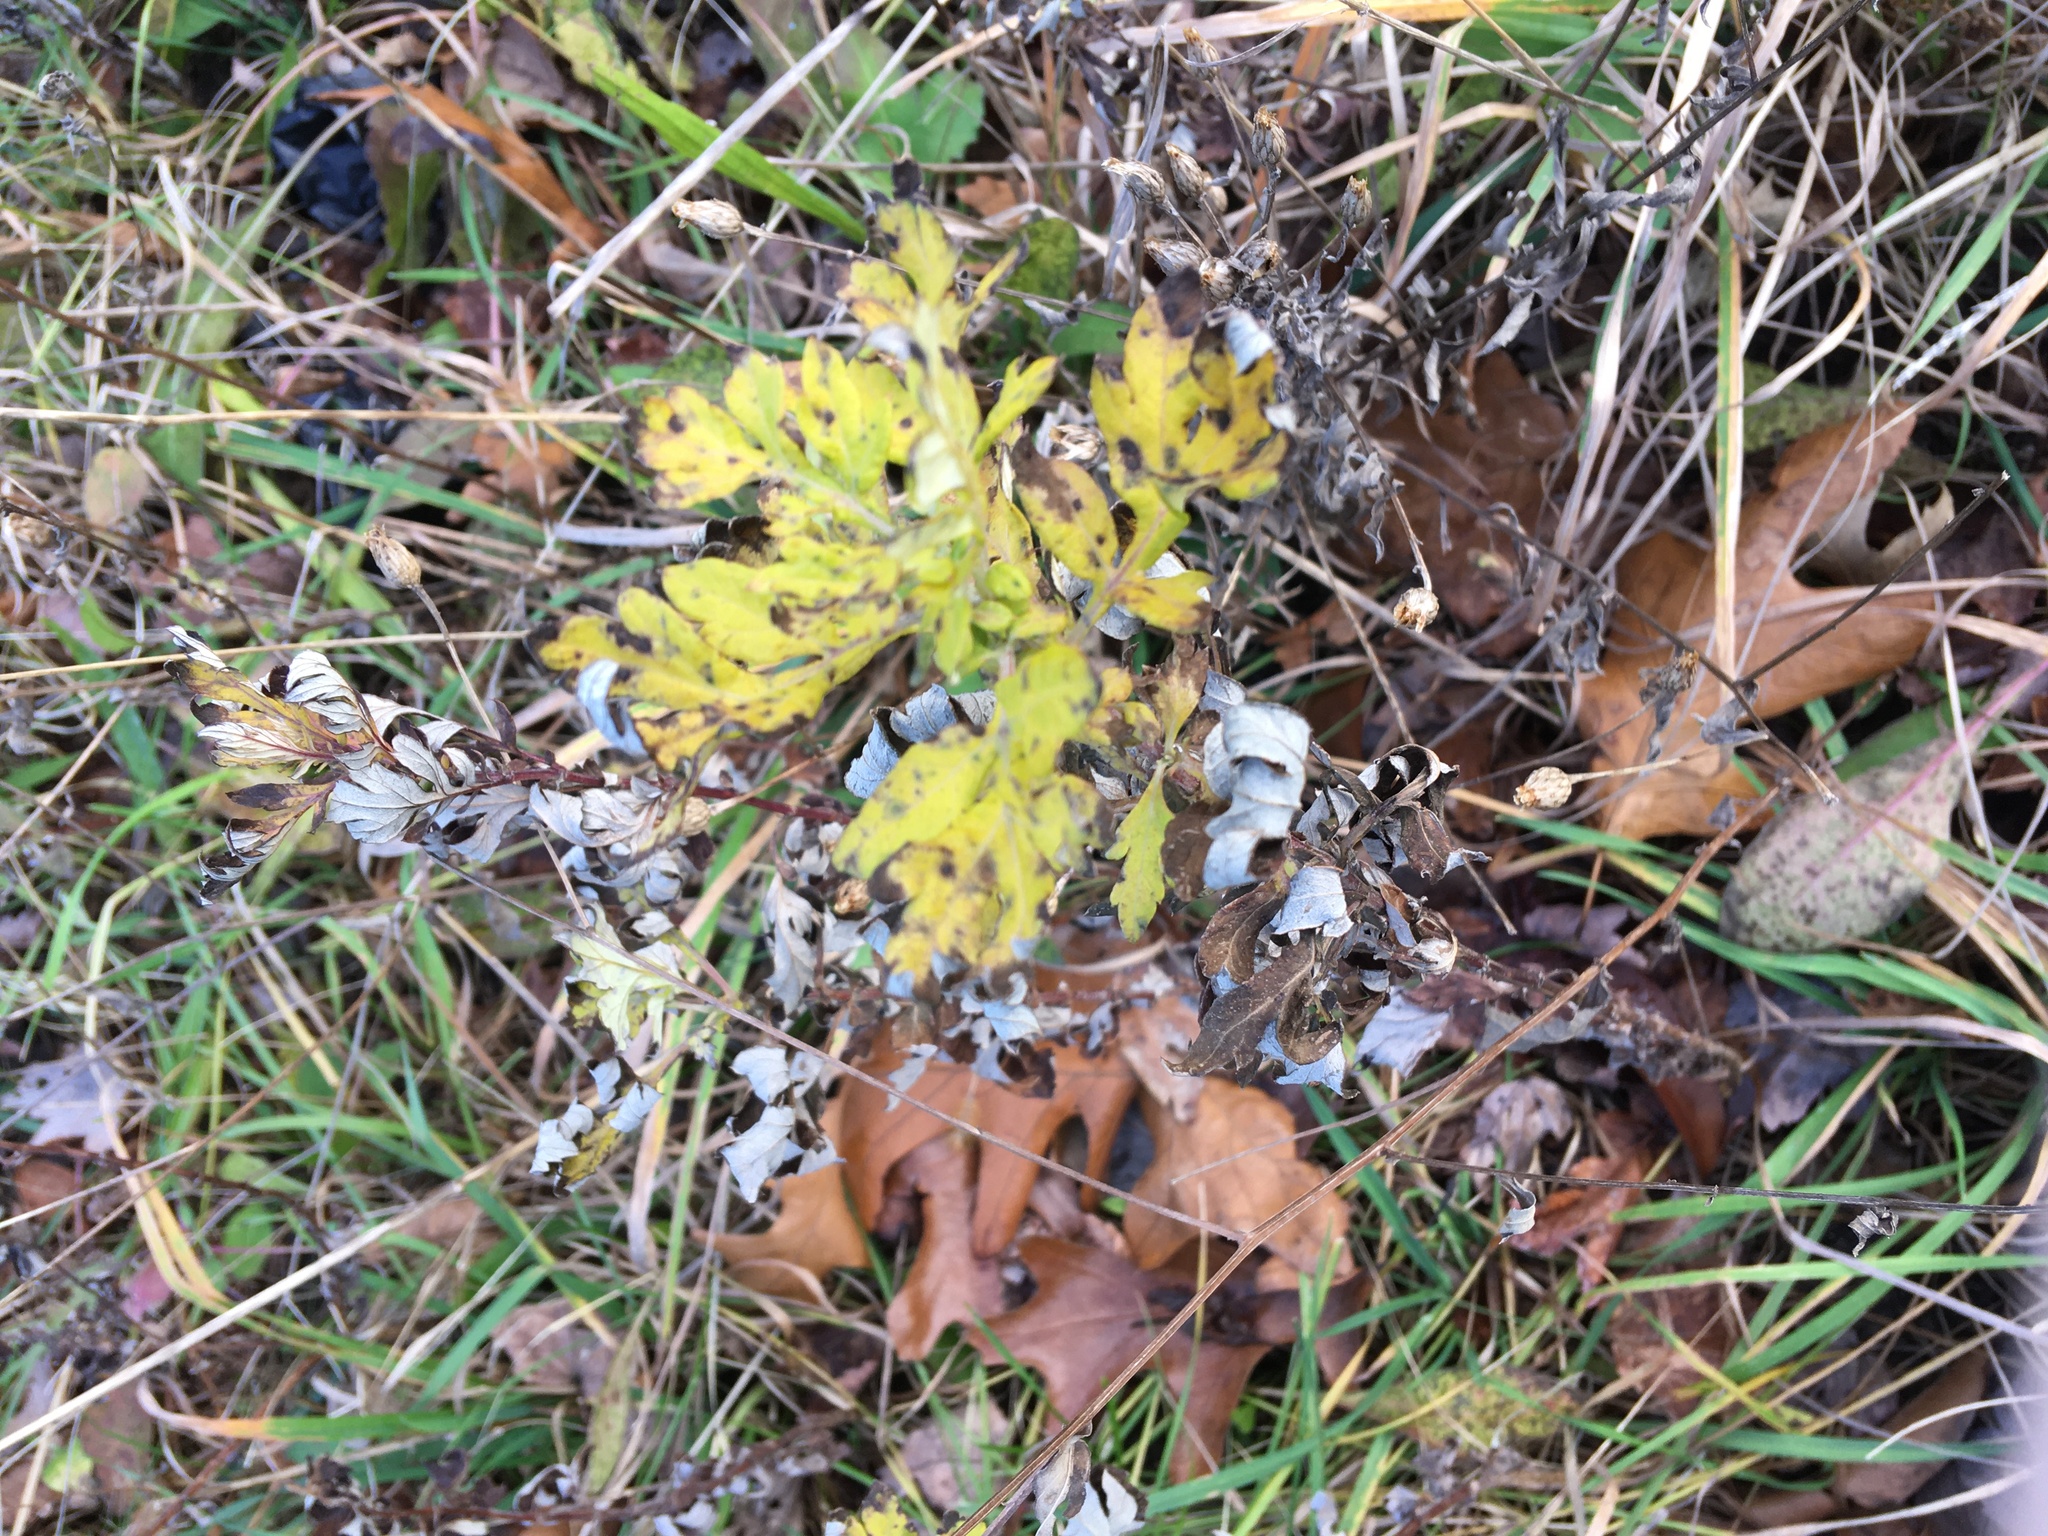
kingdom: Plantae
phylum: Tracheophyta
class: Magnoliopsida
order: Asterales
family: Asteraceae
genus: Artemisia
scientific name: Artemisia vulgaris
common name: Mugwort
